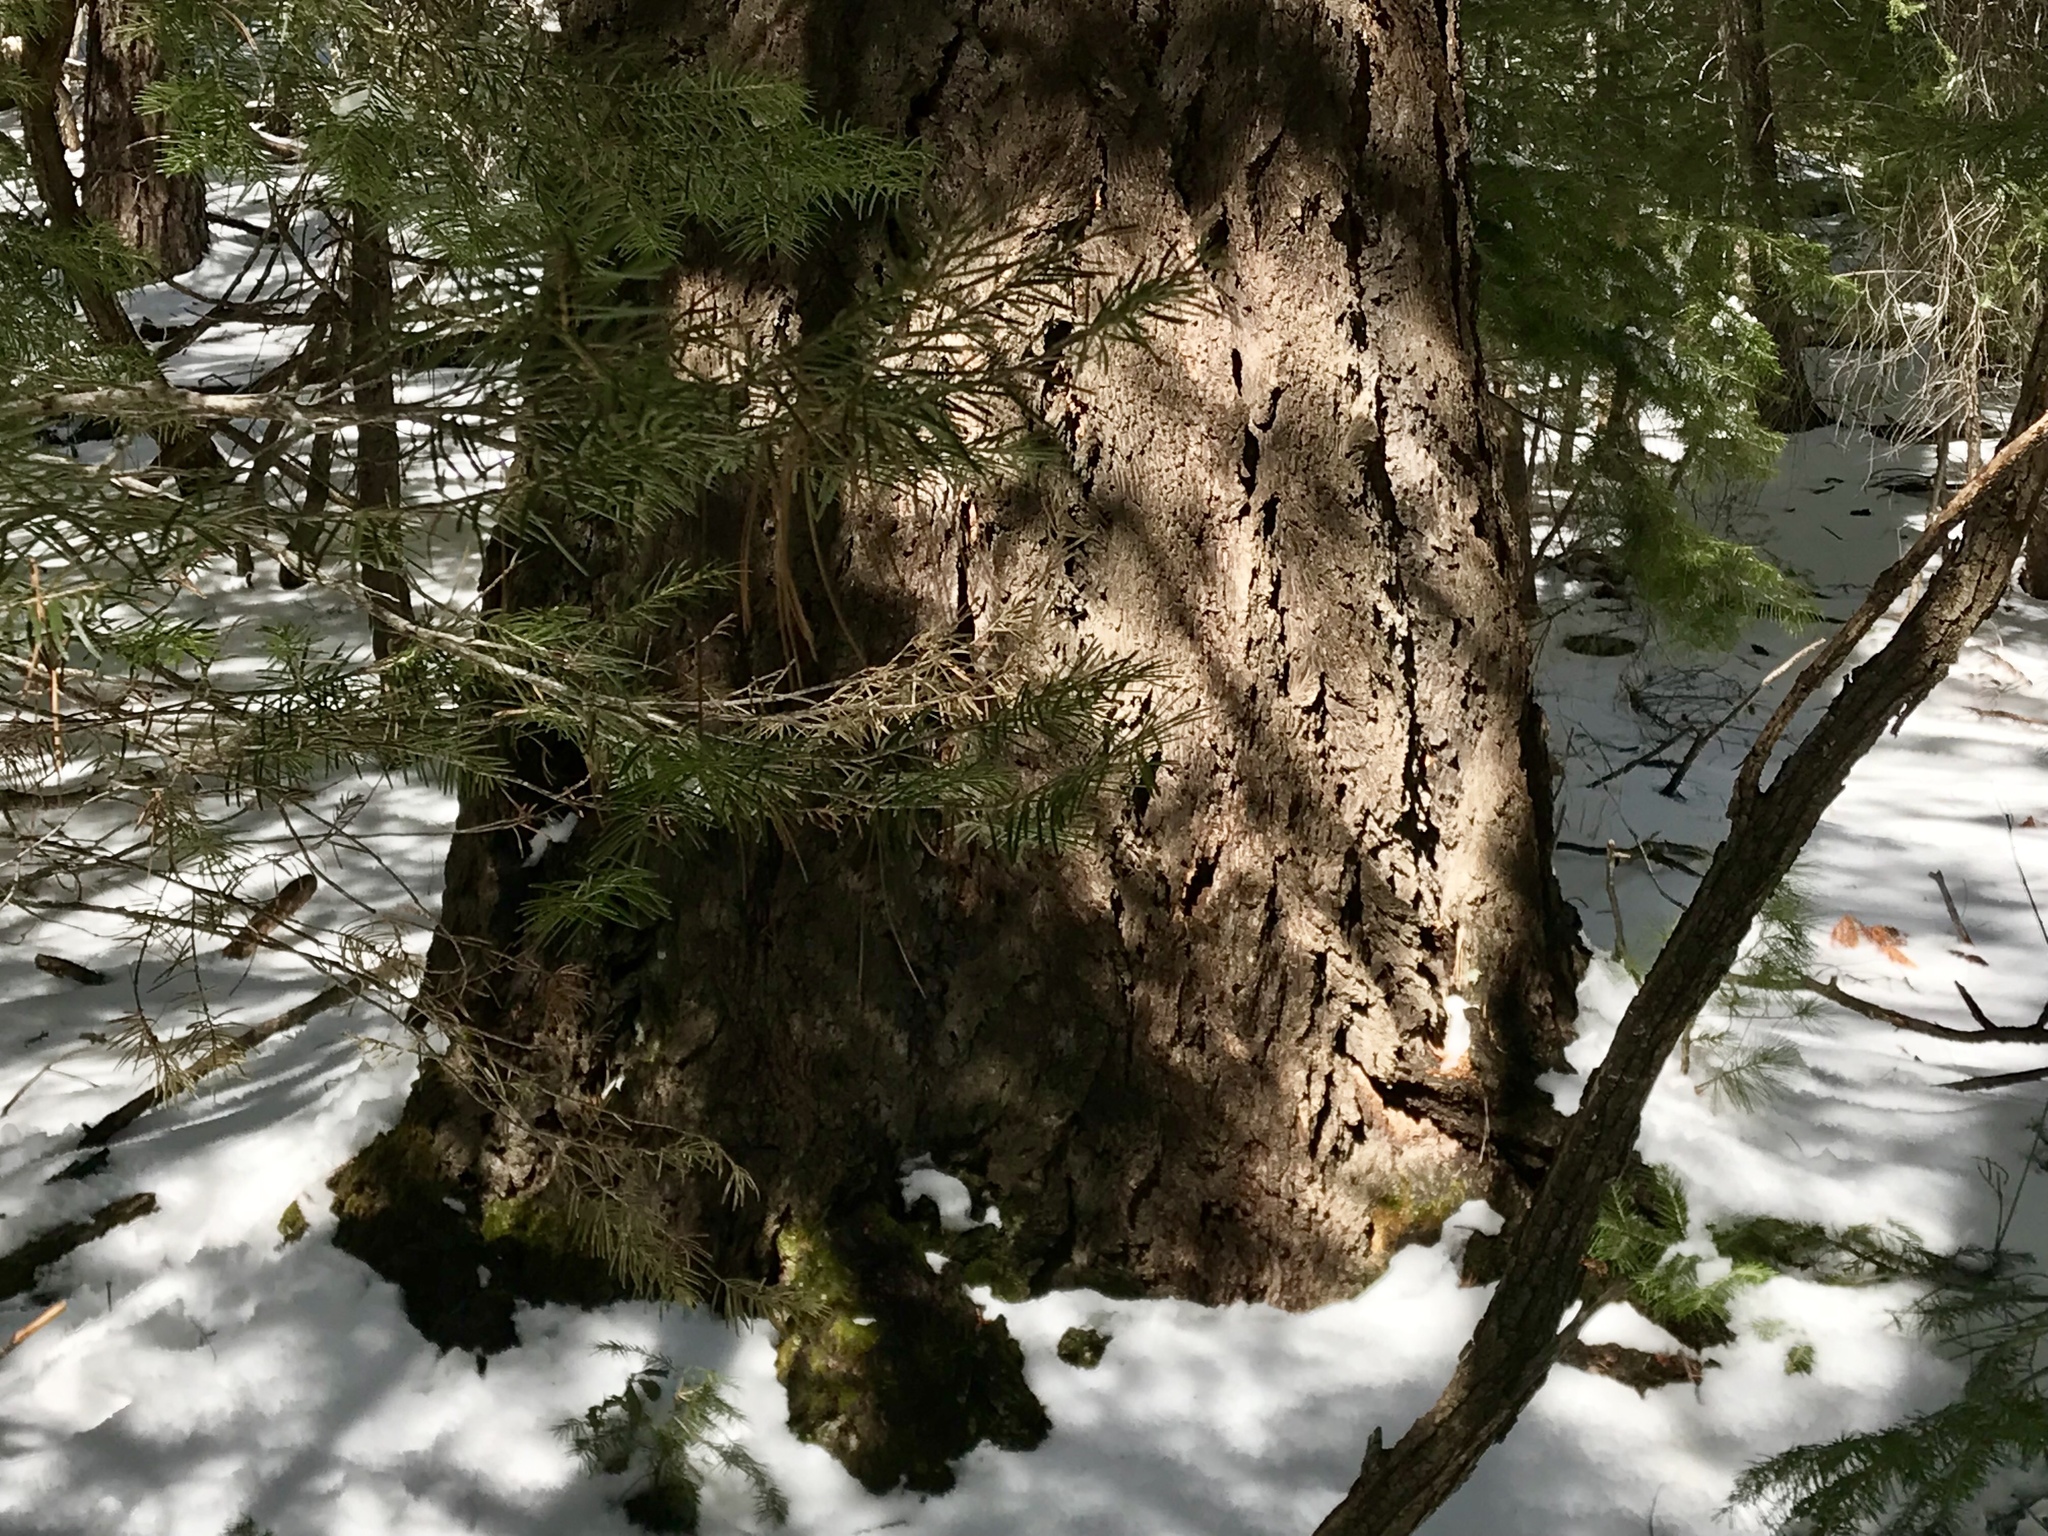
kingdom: Plantae
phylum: Tracheophyta
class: Pinopsida
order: Pinales
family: Pinaceae
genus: Pseudotsuga
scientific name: Pseudotsuga menziesii
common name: Douglas fir
